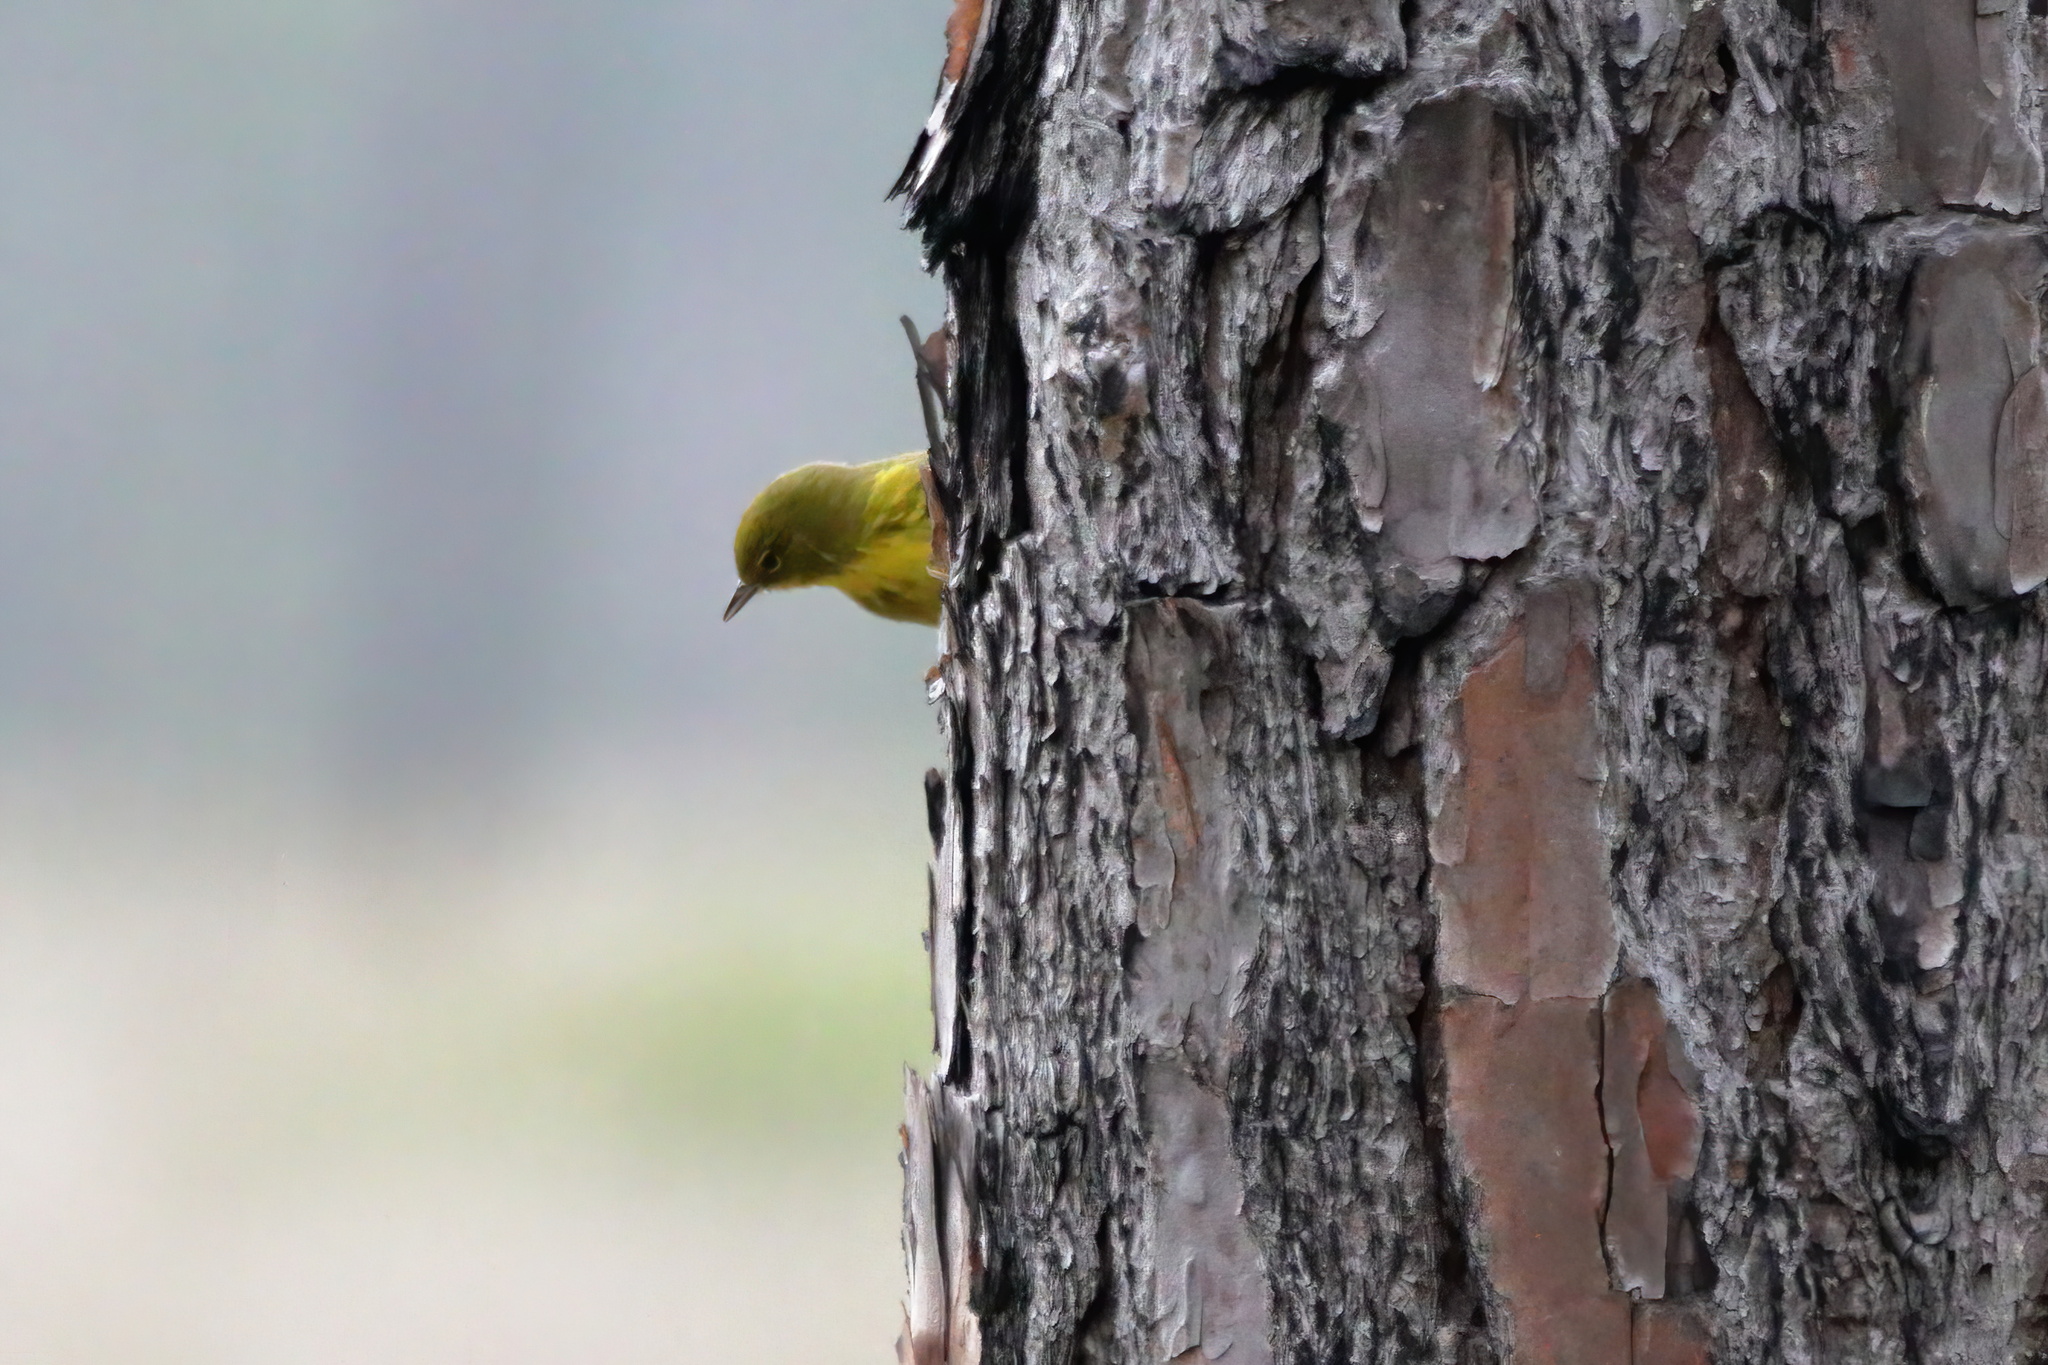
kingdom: Animalia
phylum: Chordata
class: Aves
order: Passeriformes
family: Parulidae
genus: Setophaga
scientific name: Setophaga pinus
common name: Pine warbler
